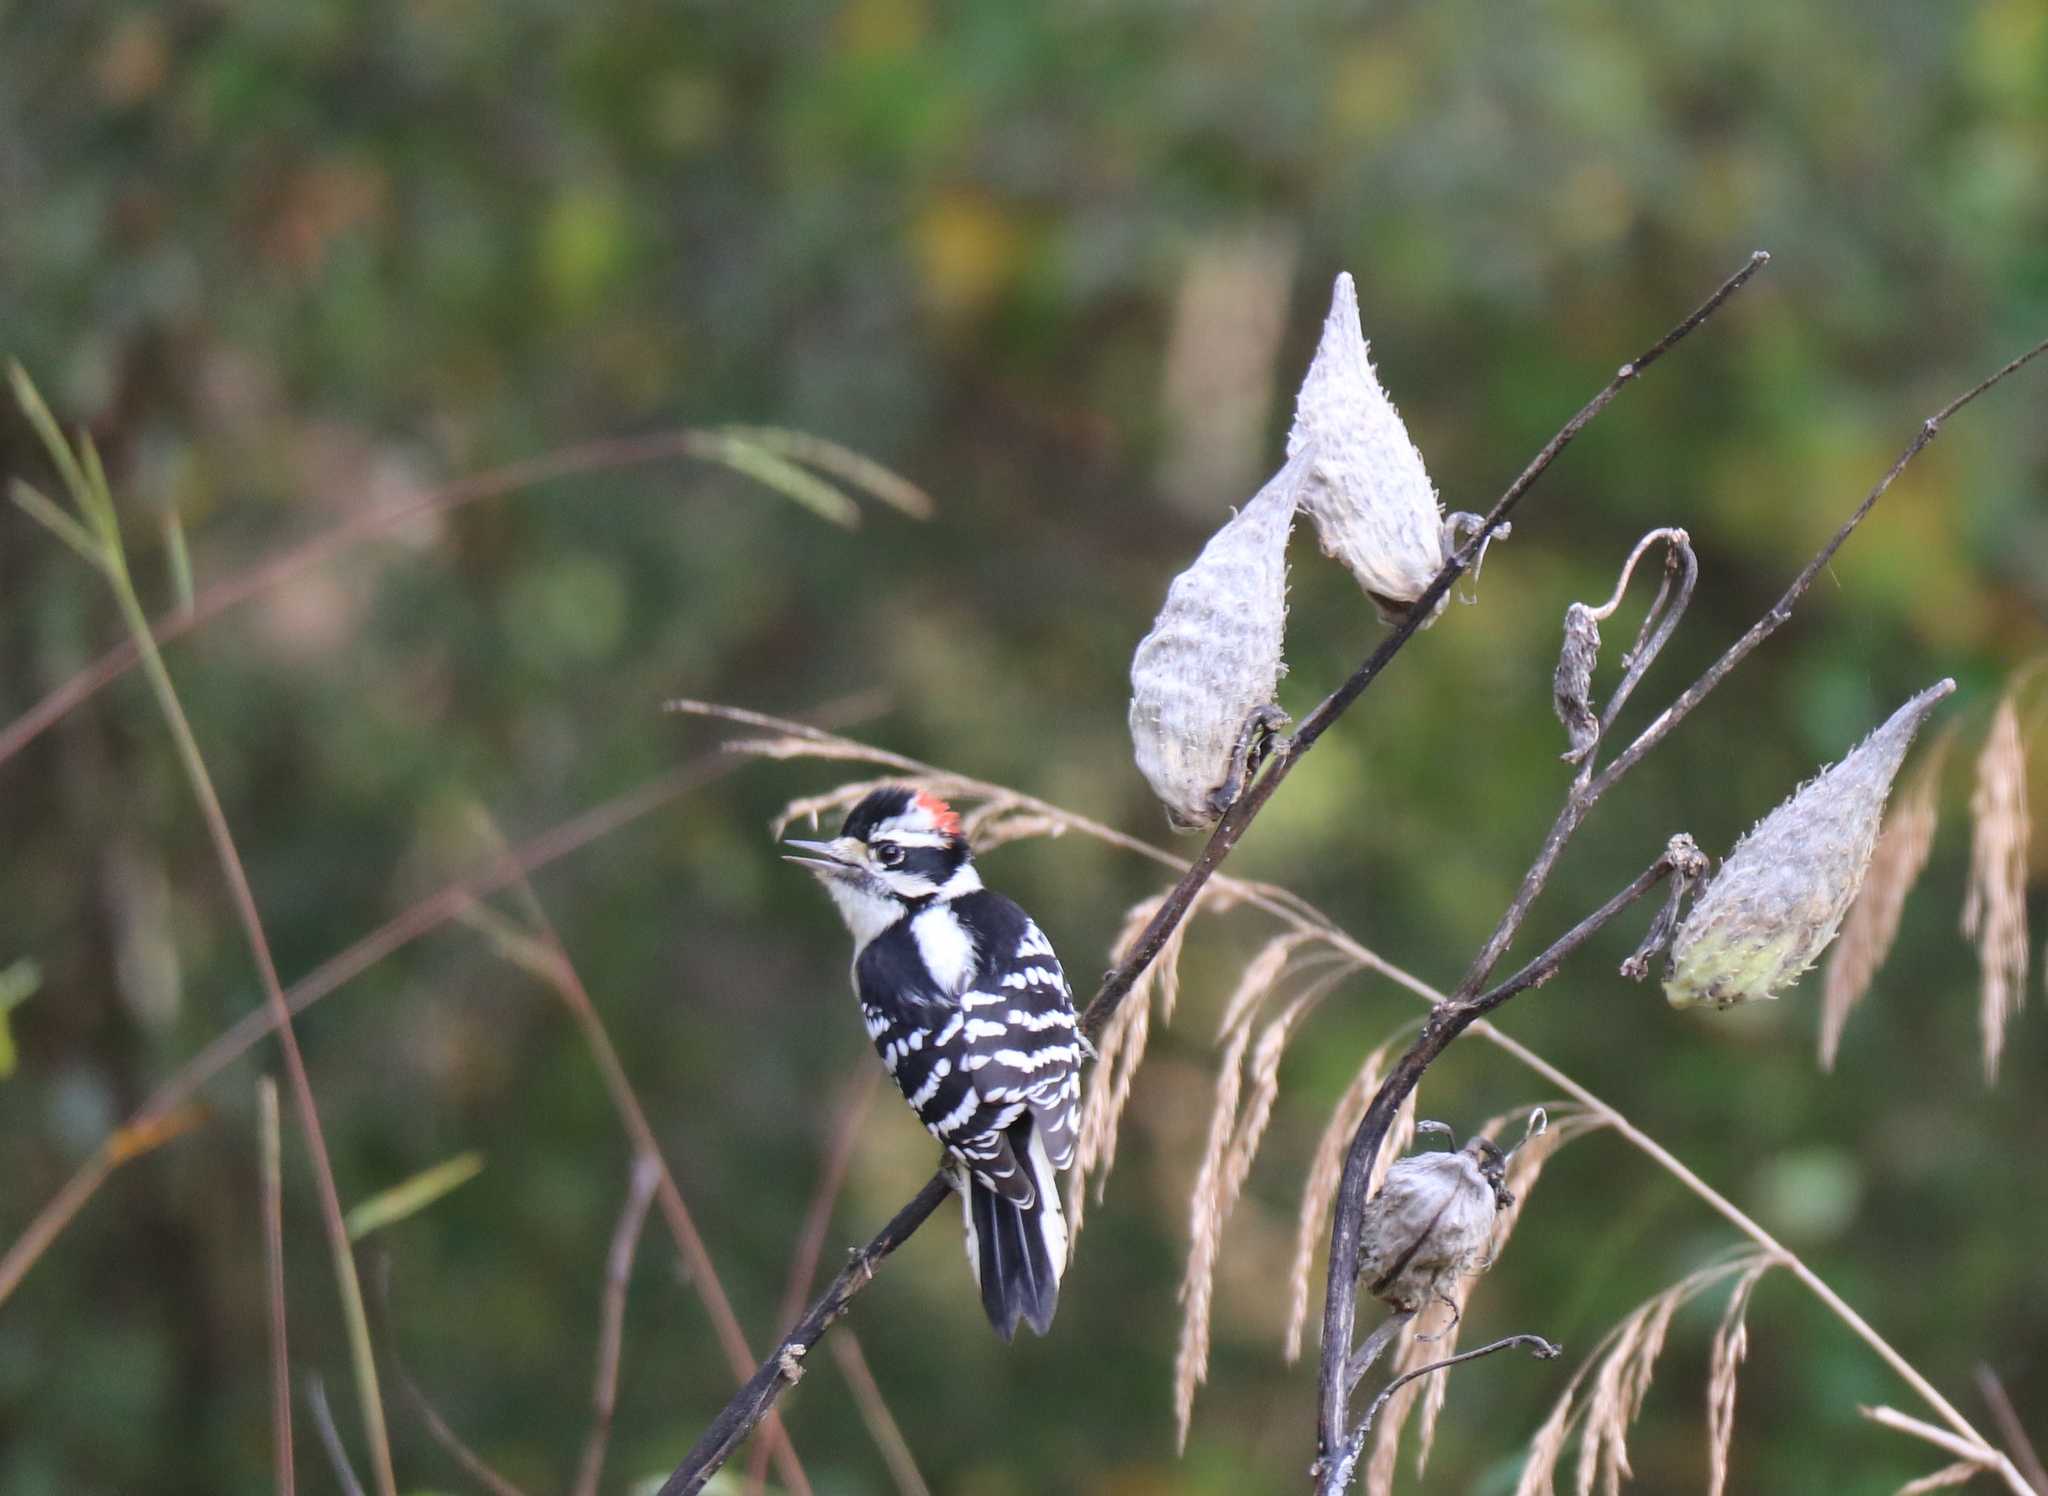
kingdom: Animalia
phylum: Chordata
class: Aves
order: Piciformes
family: Picidae
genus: Dryobates
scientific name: Dryobates pubescens
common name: Downy woodpecker
